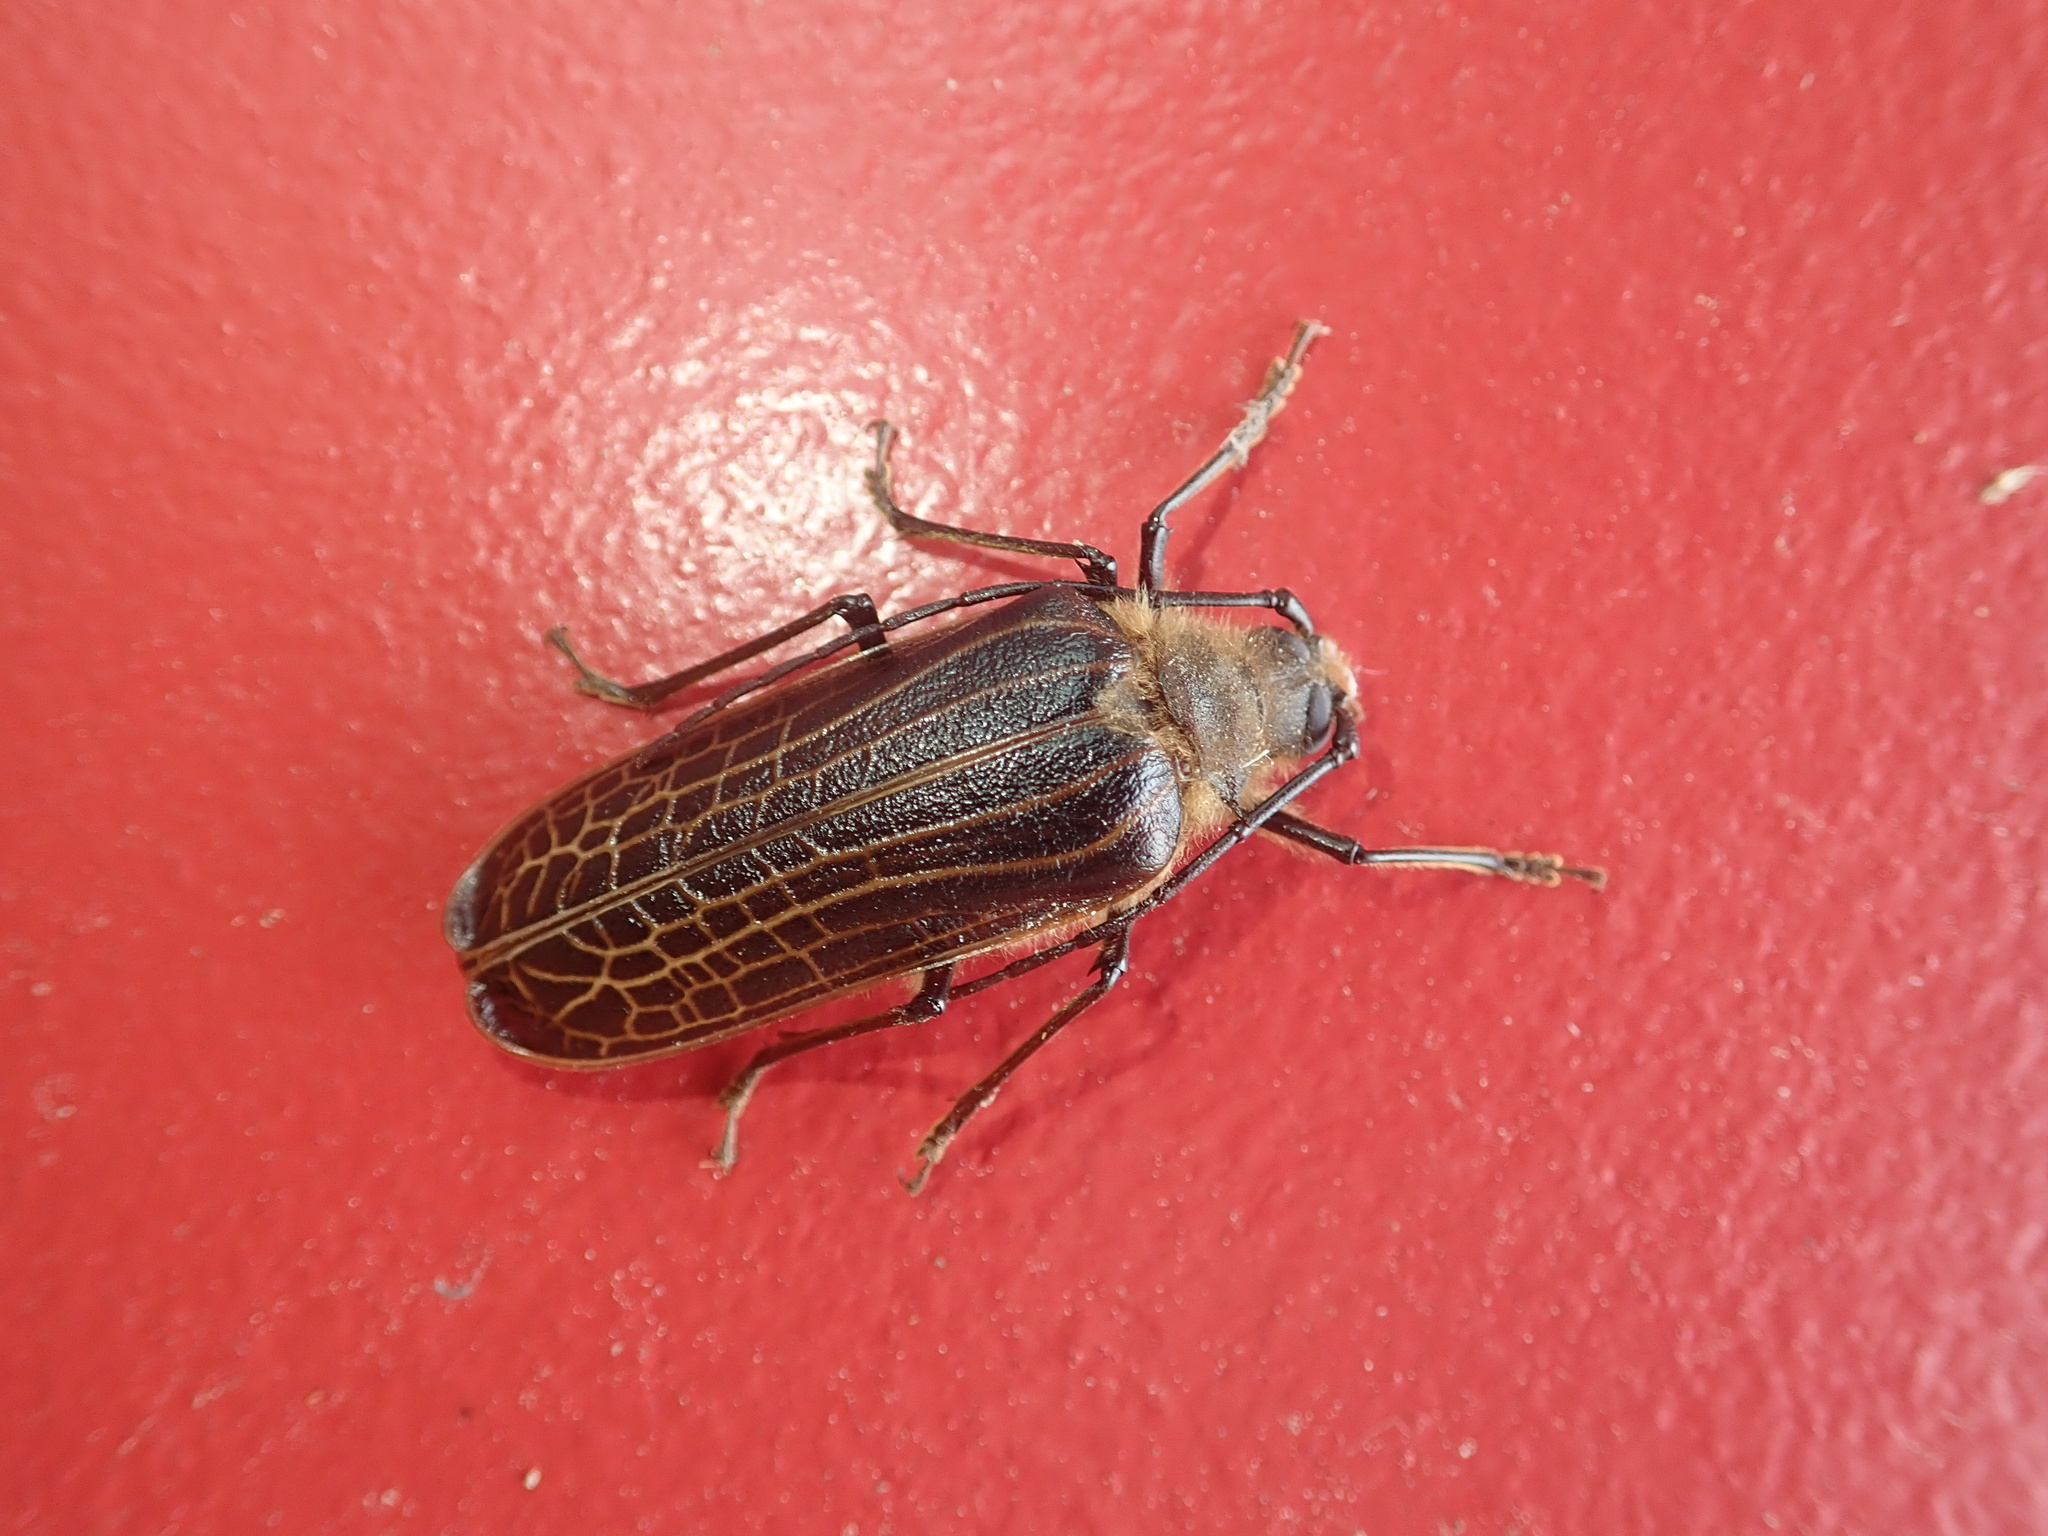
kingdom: Animalia
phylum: Arthropoda
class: Insecta
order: Coleoptera
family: Cerambycidae
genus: Prionoplus
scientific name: Prionoplus reticularis
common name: Huhu beetle
